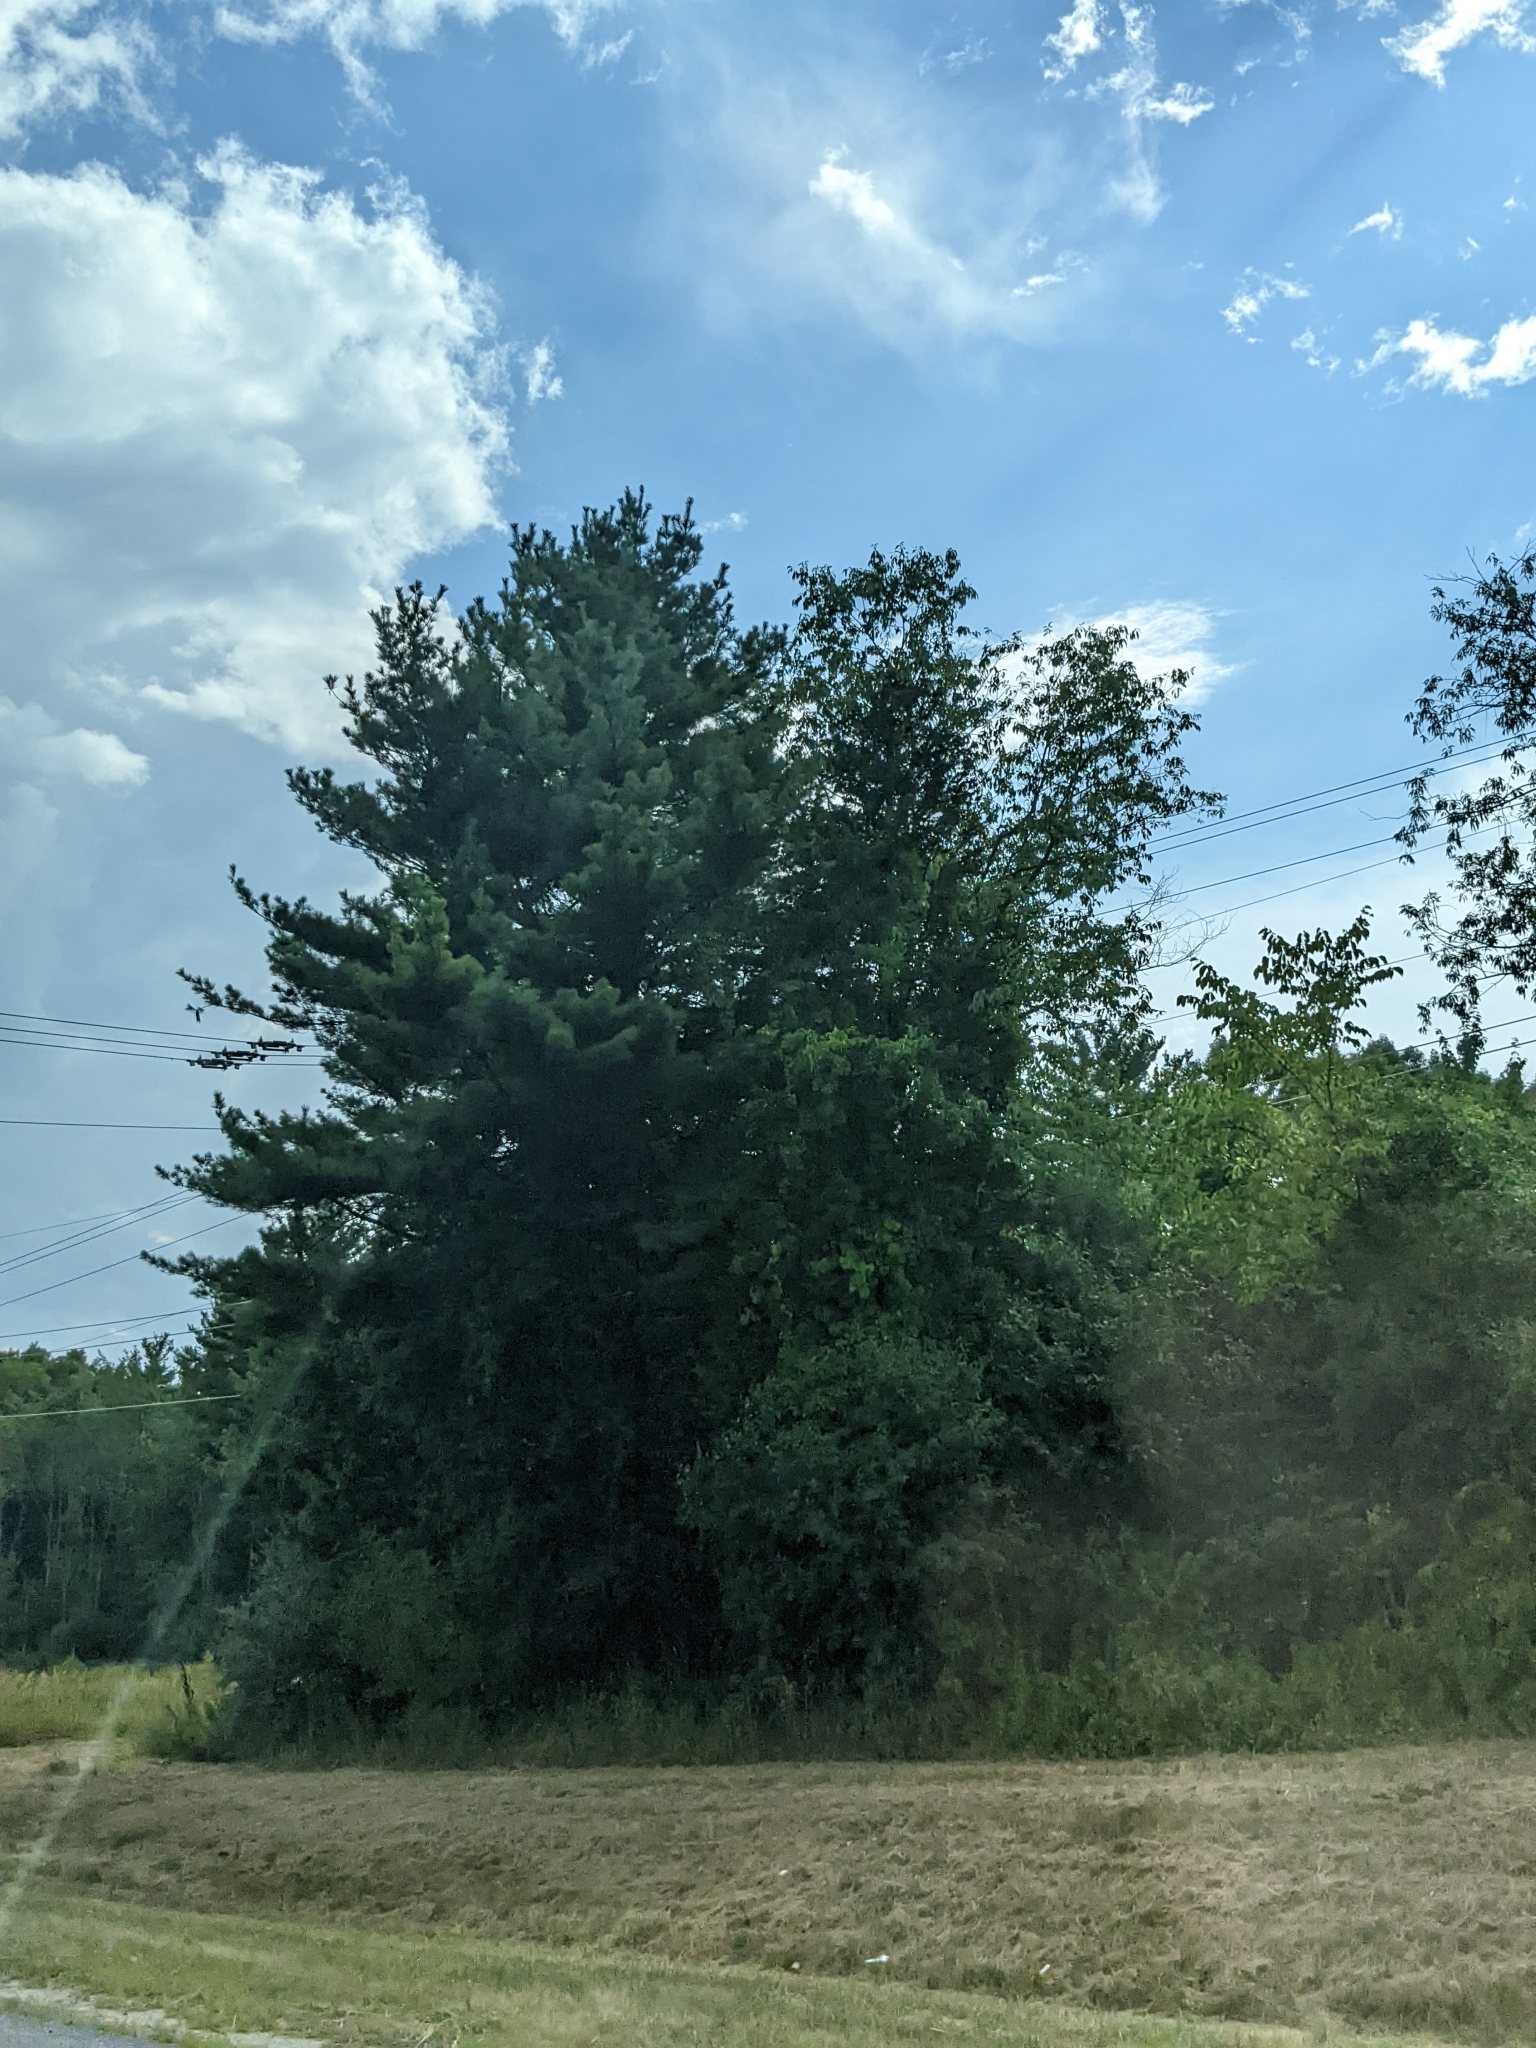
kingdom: Plantae
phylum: Tracheophyta
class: Pinopsida
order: Pinales
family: Pinaceae
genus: Pinus
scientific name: Pinus strobus
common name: Weymouth pine
